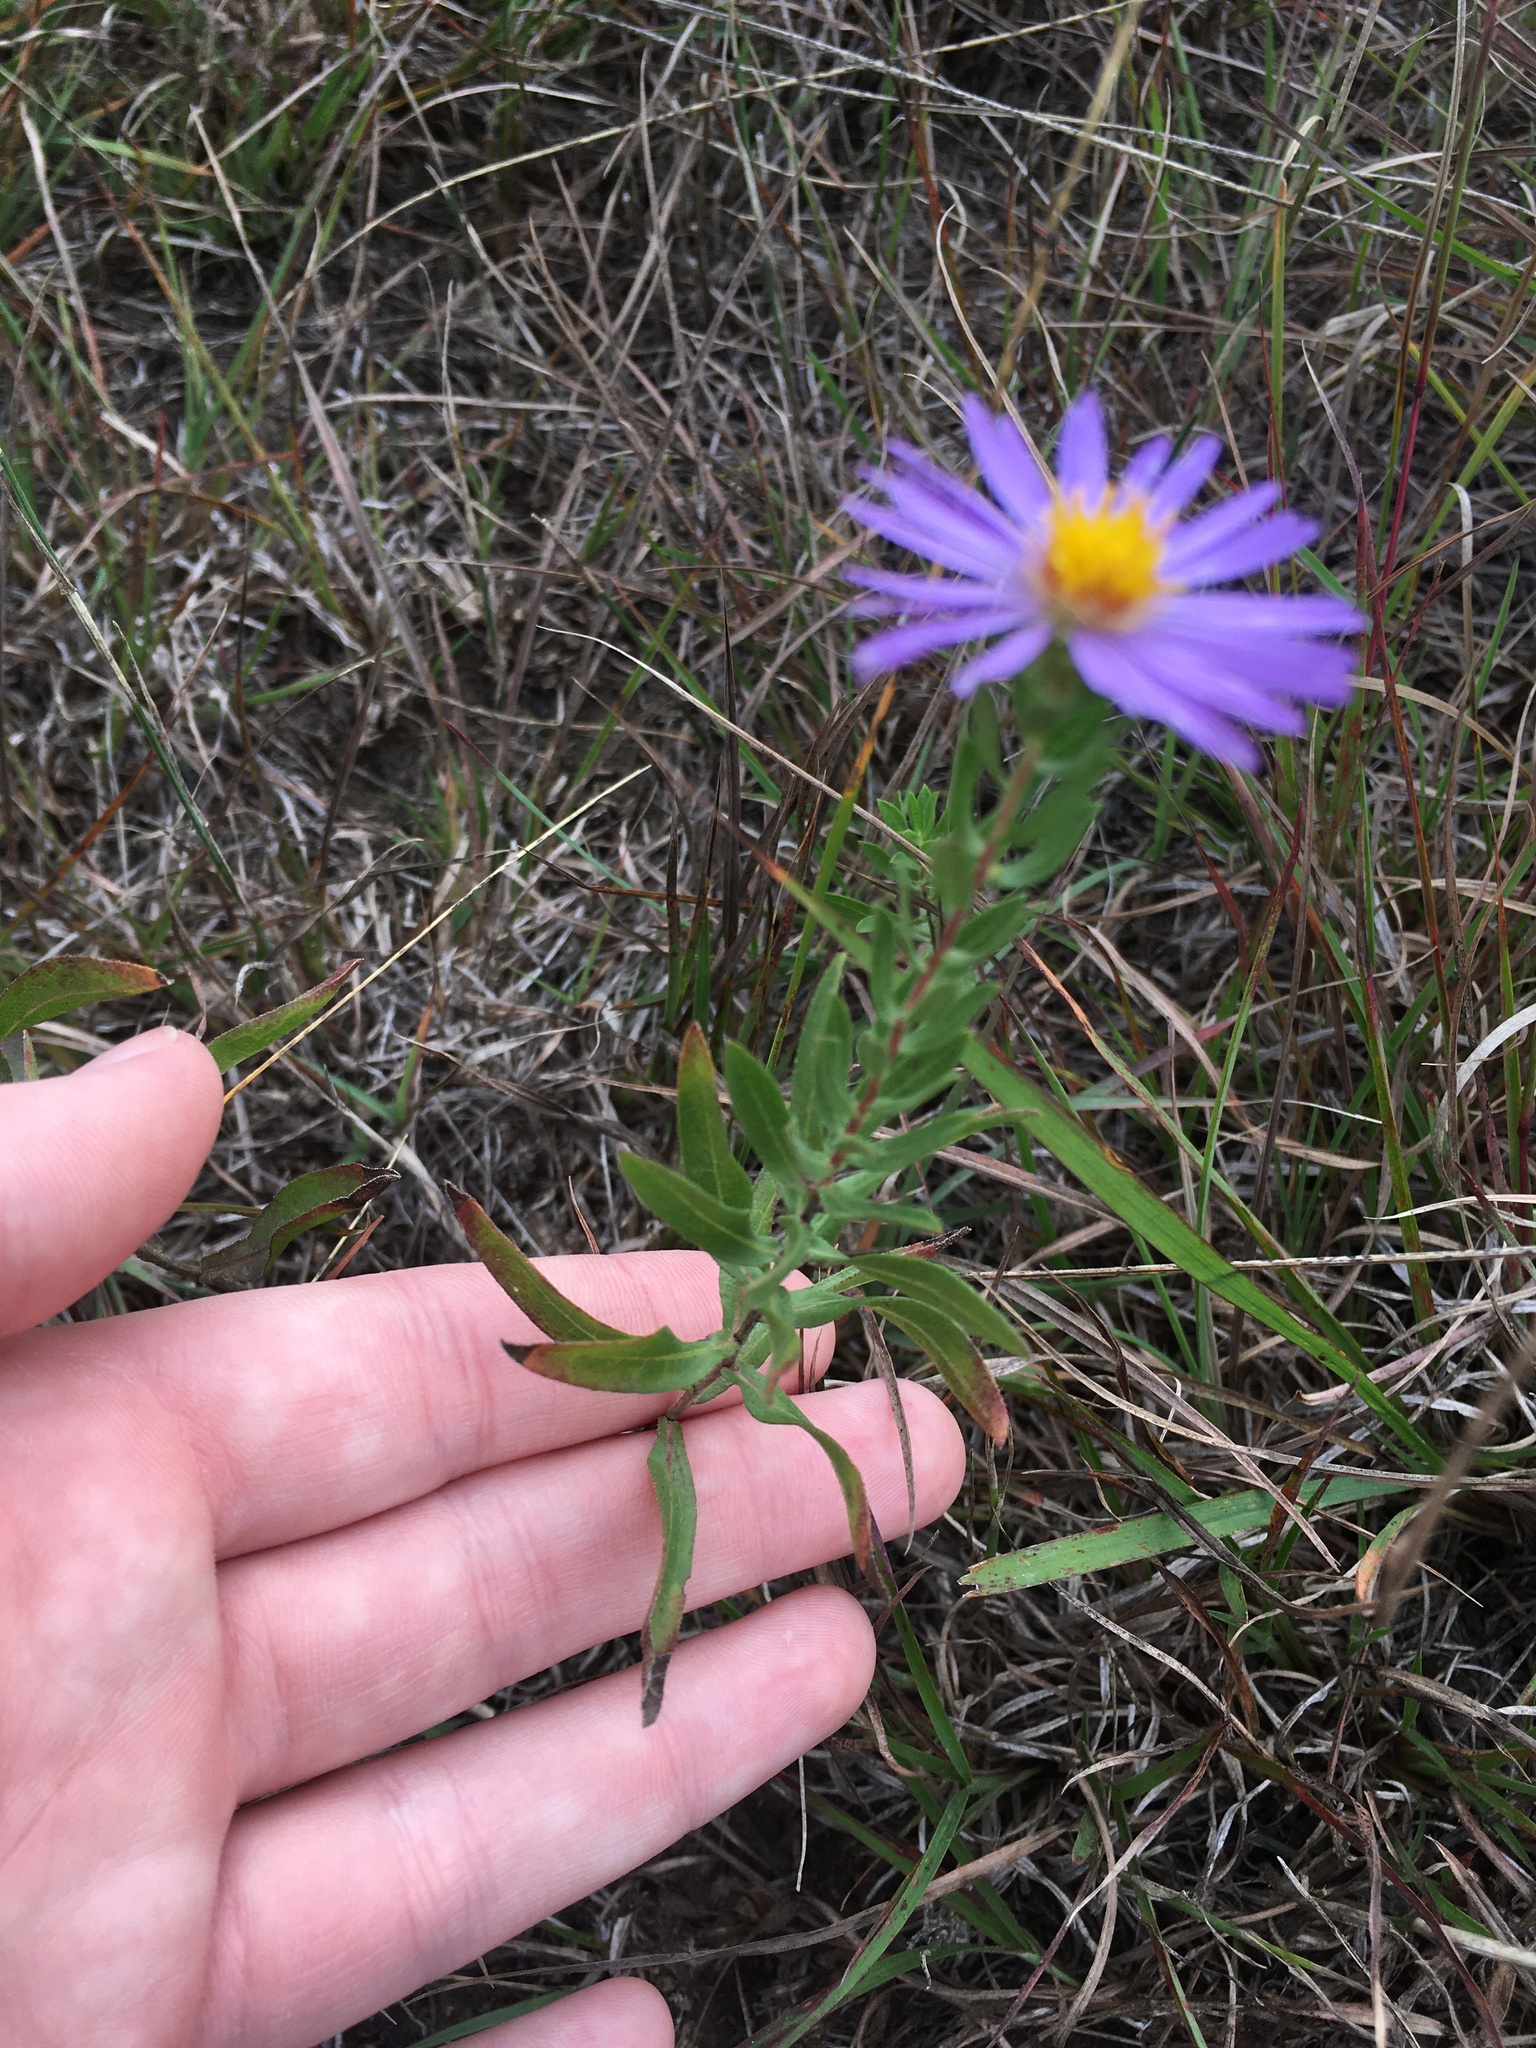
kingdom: Plantae
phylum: Tracheophyta
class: Magnoliopsida
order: Asterales
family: Asteraceae
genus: Symphyotrichum
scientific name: Symphyotrichum oblongifolium
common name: Aromatic aster
